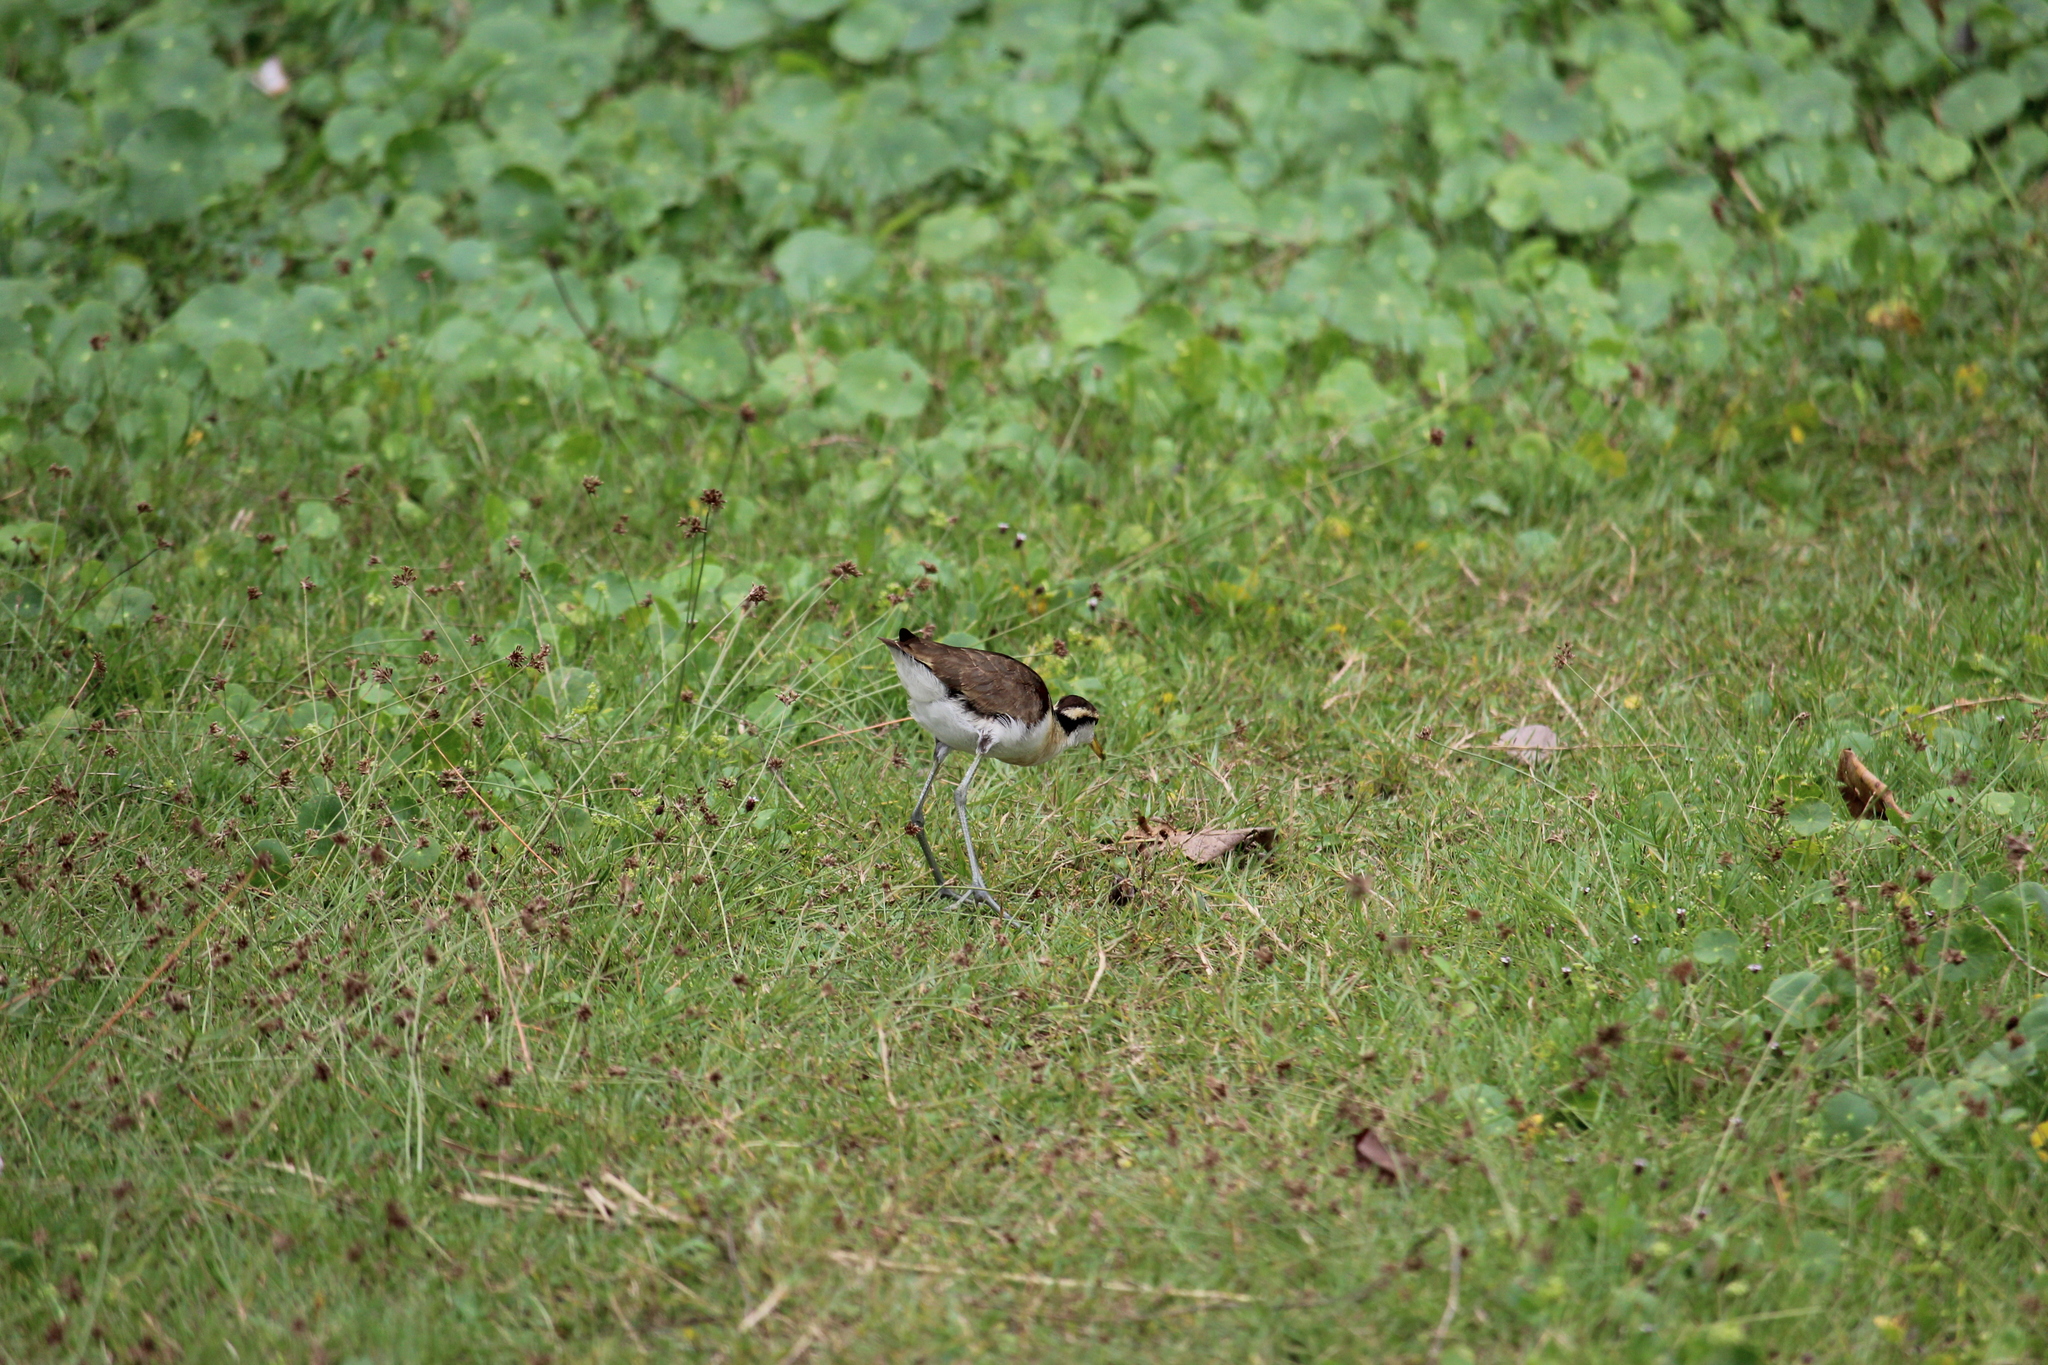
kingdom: Animalia
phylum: Chordata
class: Aves
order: Charadriiformes
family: Jacanidae
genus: Jacana
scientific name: Jacana spinosa
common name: Northern jacana
